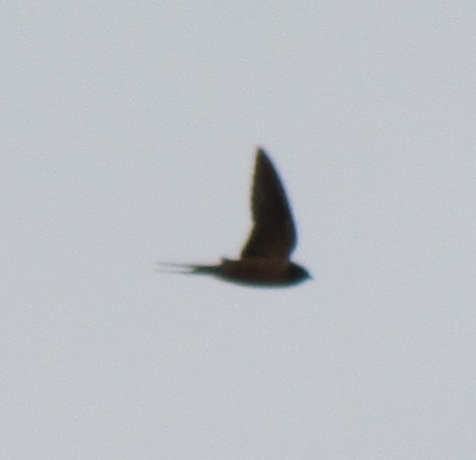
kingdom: Animalia
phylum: Chordata
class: Aves
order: Passeriformes
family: Hirundinidae
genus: Hirundo
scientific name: Hirundo rustica
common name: Barn swallow
